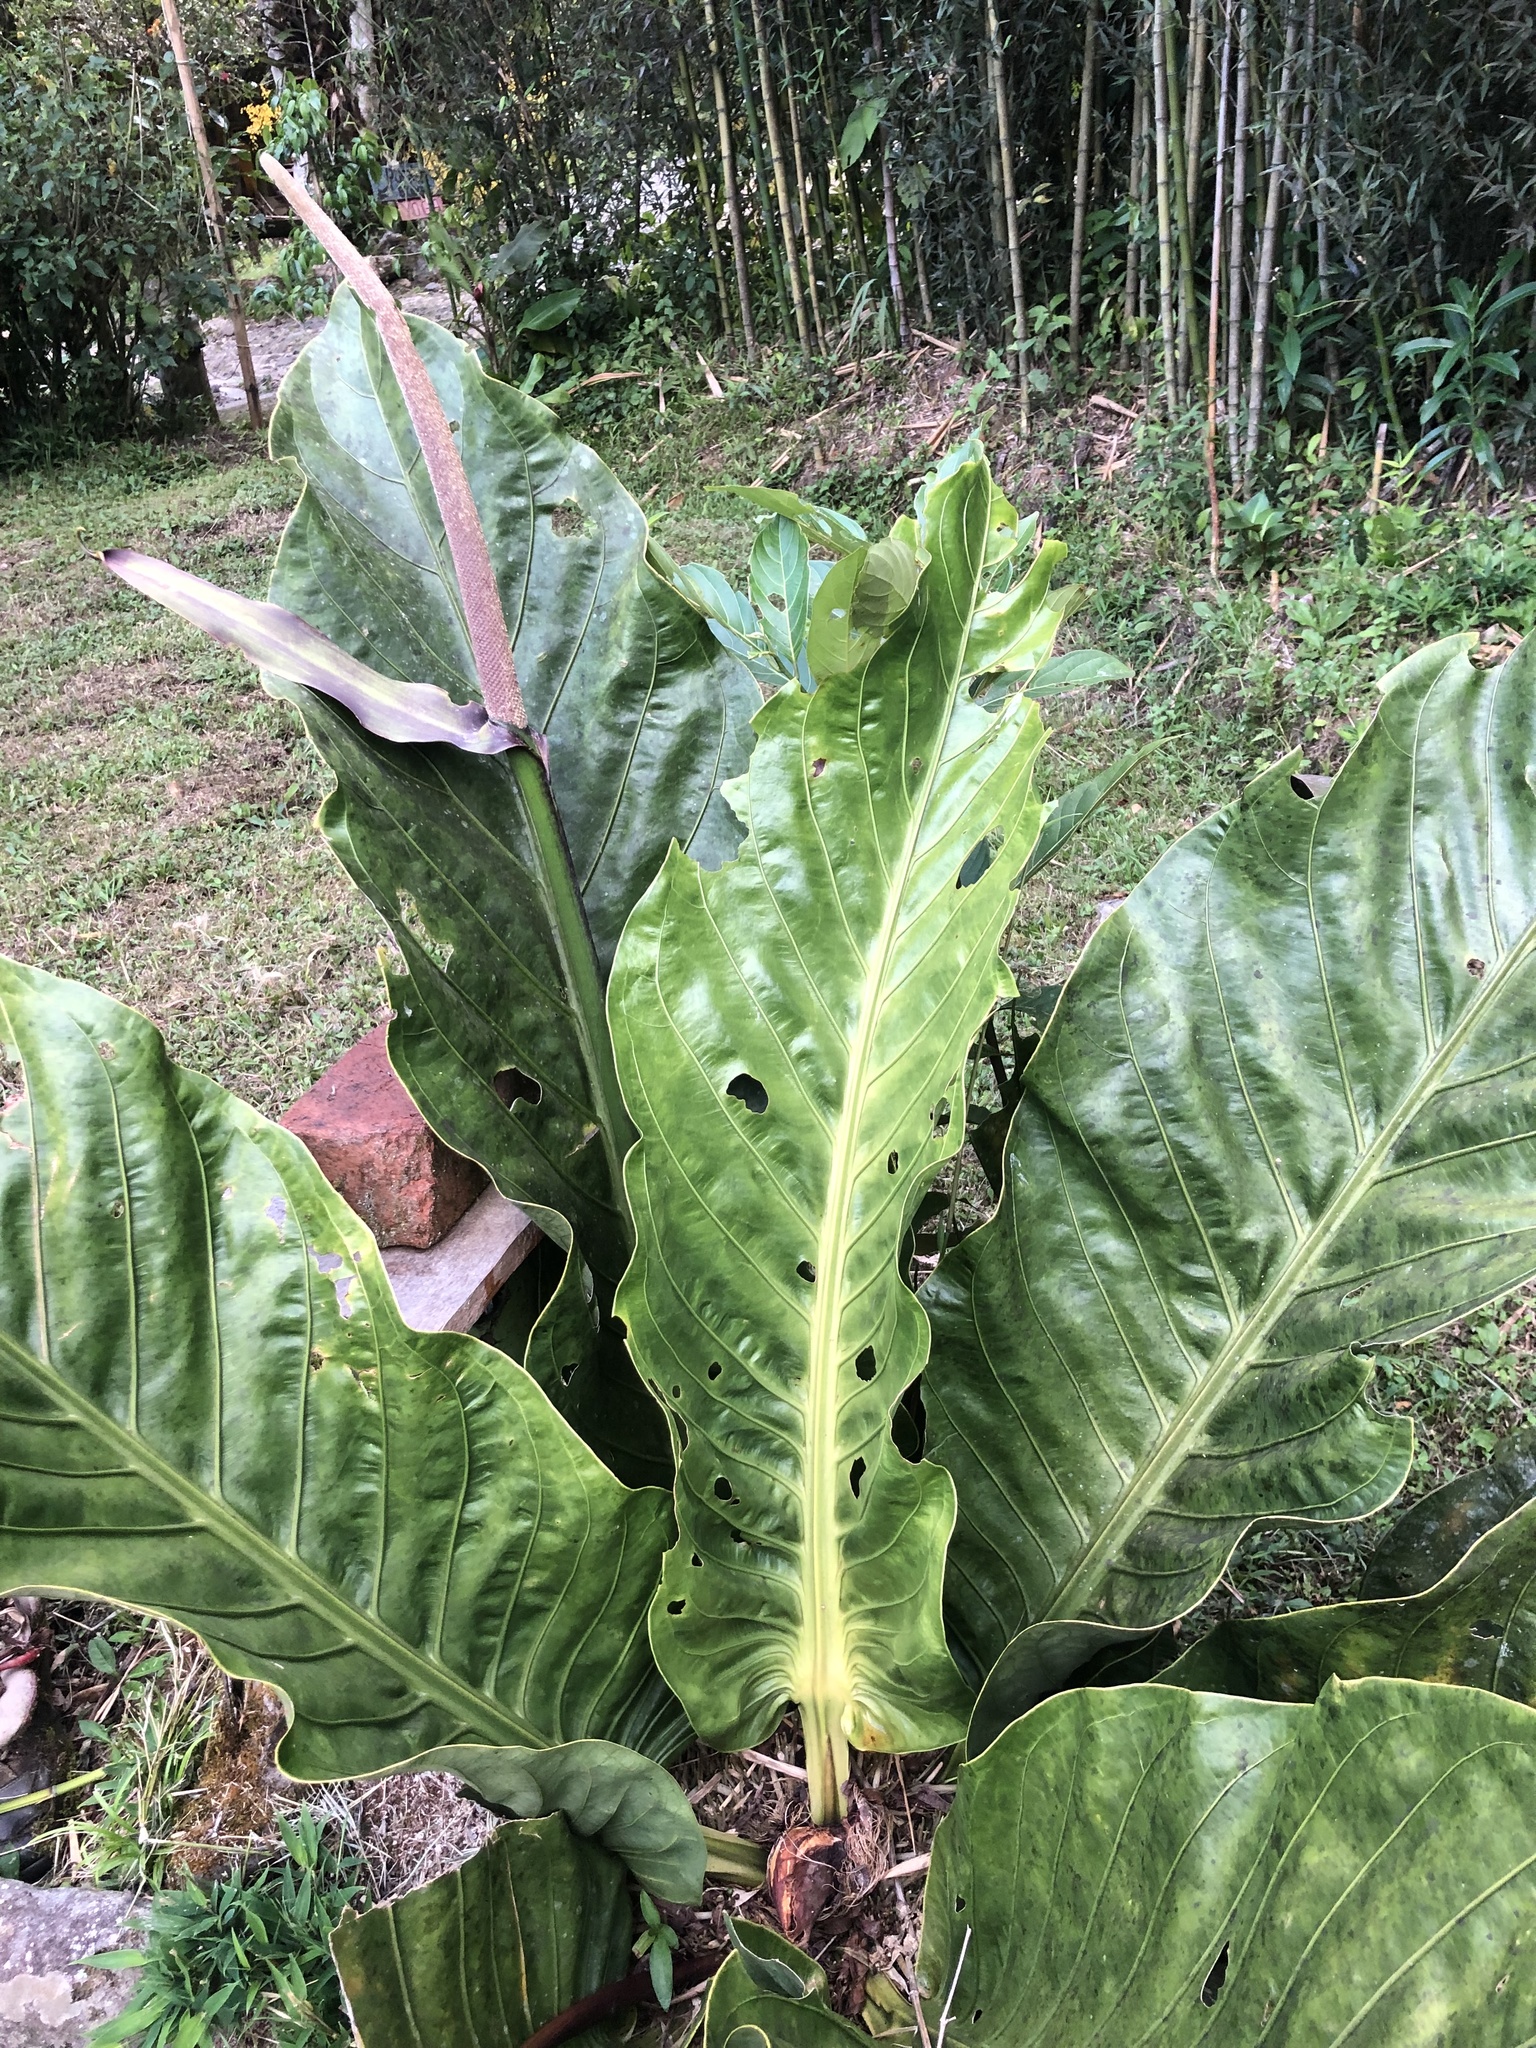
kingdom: Plantae
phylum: Tracheophyta
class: Liliopsida
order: Alismatales
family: Araceae
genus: Anthurium
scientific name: Anthurium harlingianum
